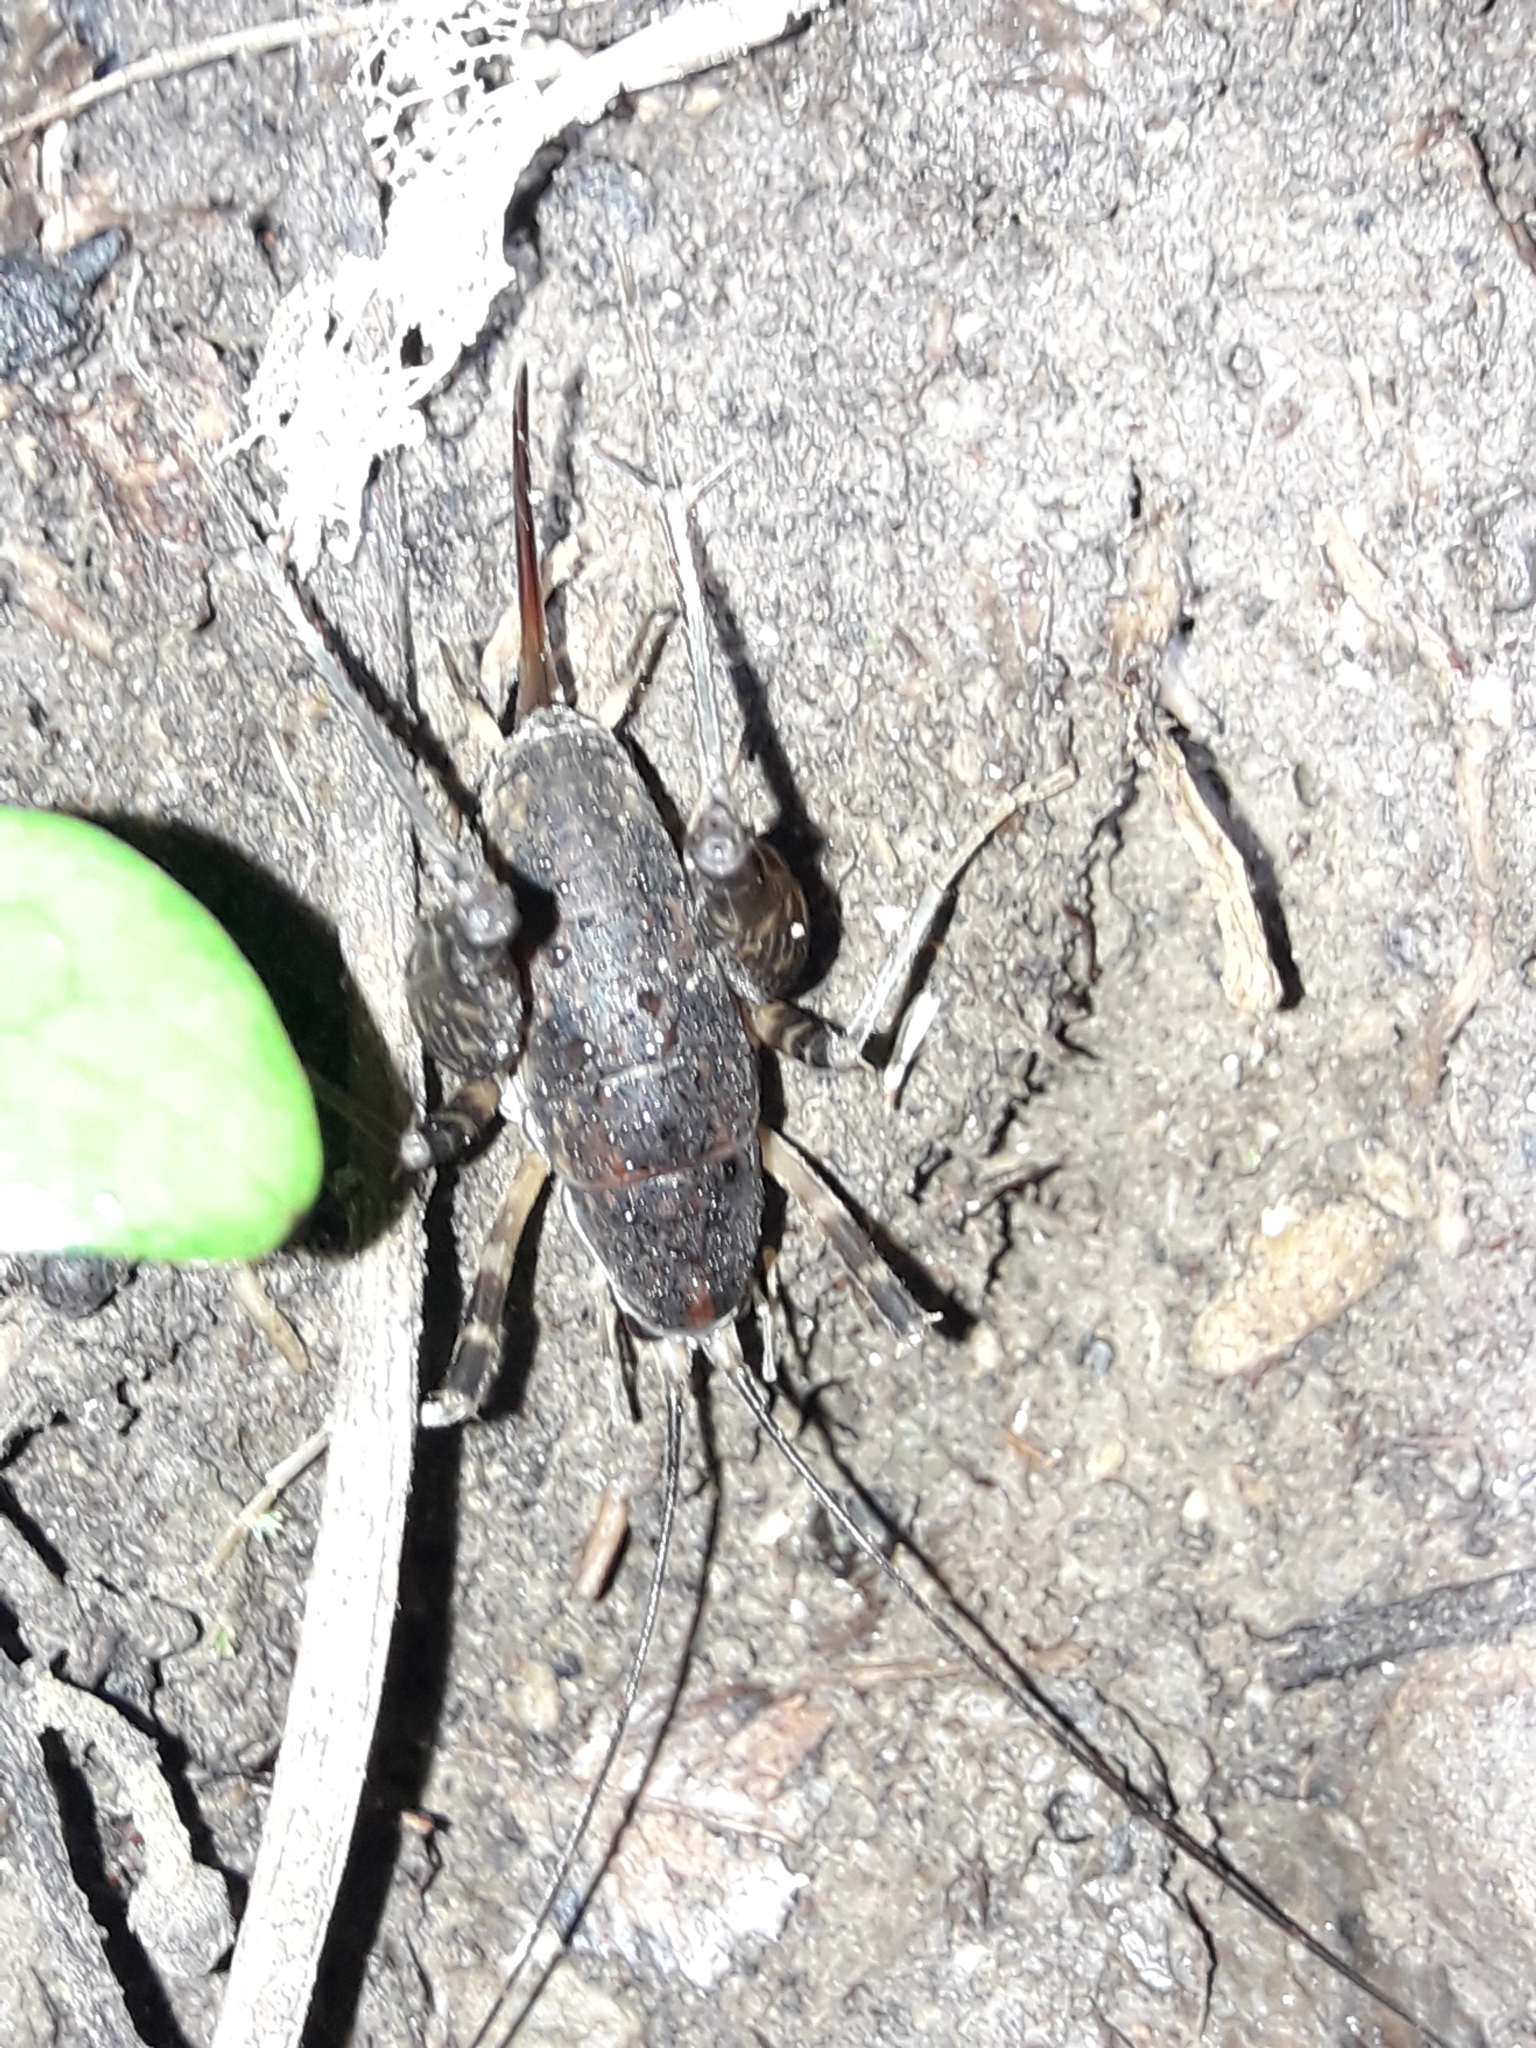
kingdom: Animalia
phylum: Arthropoda
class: Insecta
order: Orthoptera
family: Rhaphidophoridae
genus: Miotopus
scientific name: Miotopus diversus
